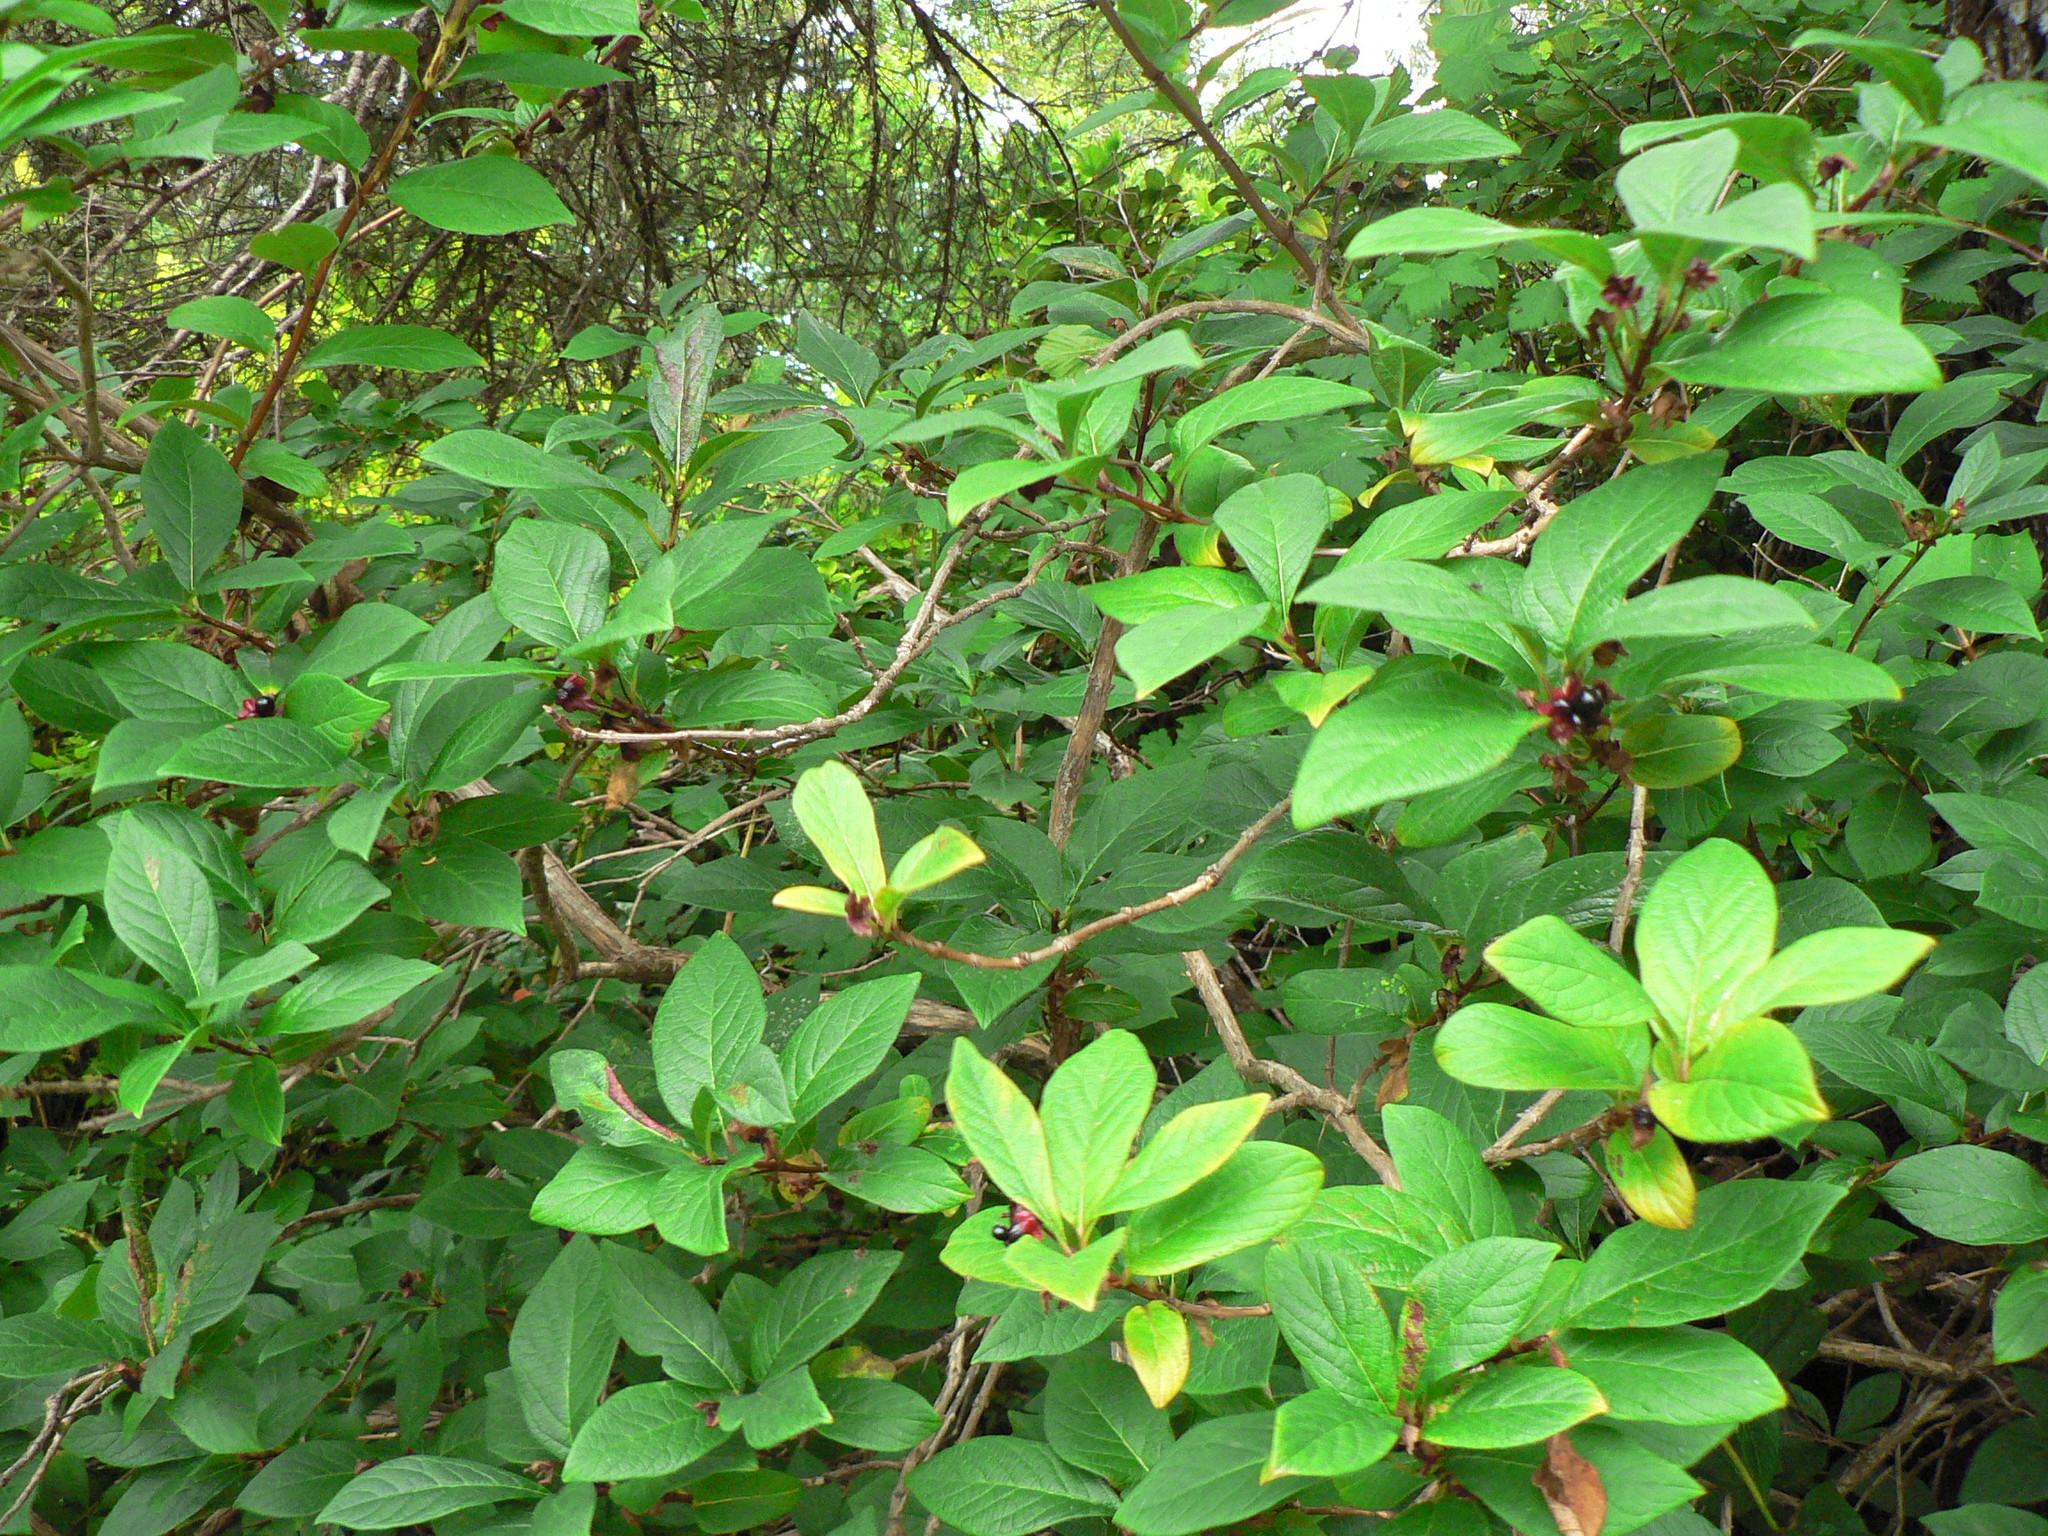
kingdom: Plantae
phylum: Tracheophyta
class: Magnoliopsida
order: Dipsacales
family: Caprifoliaceae
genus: Lonicera
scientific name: Lonicera involucrata
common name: Californian honeysuckle
